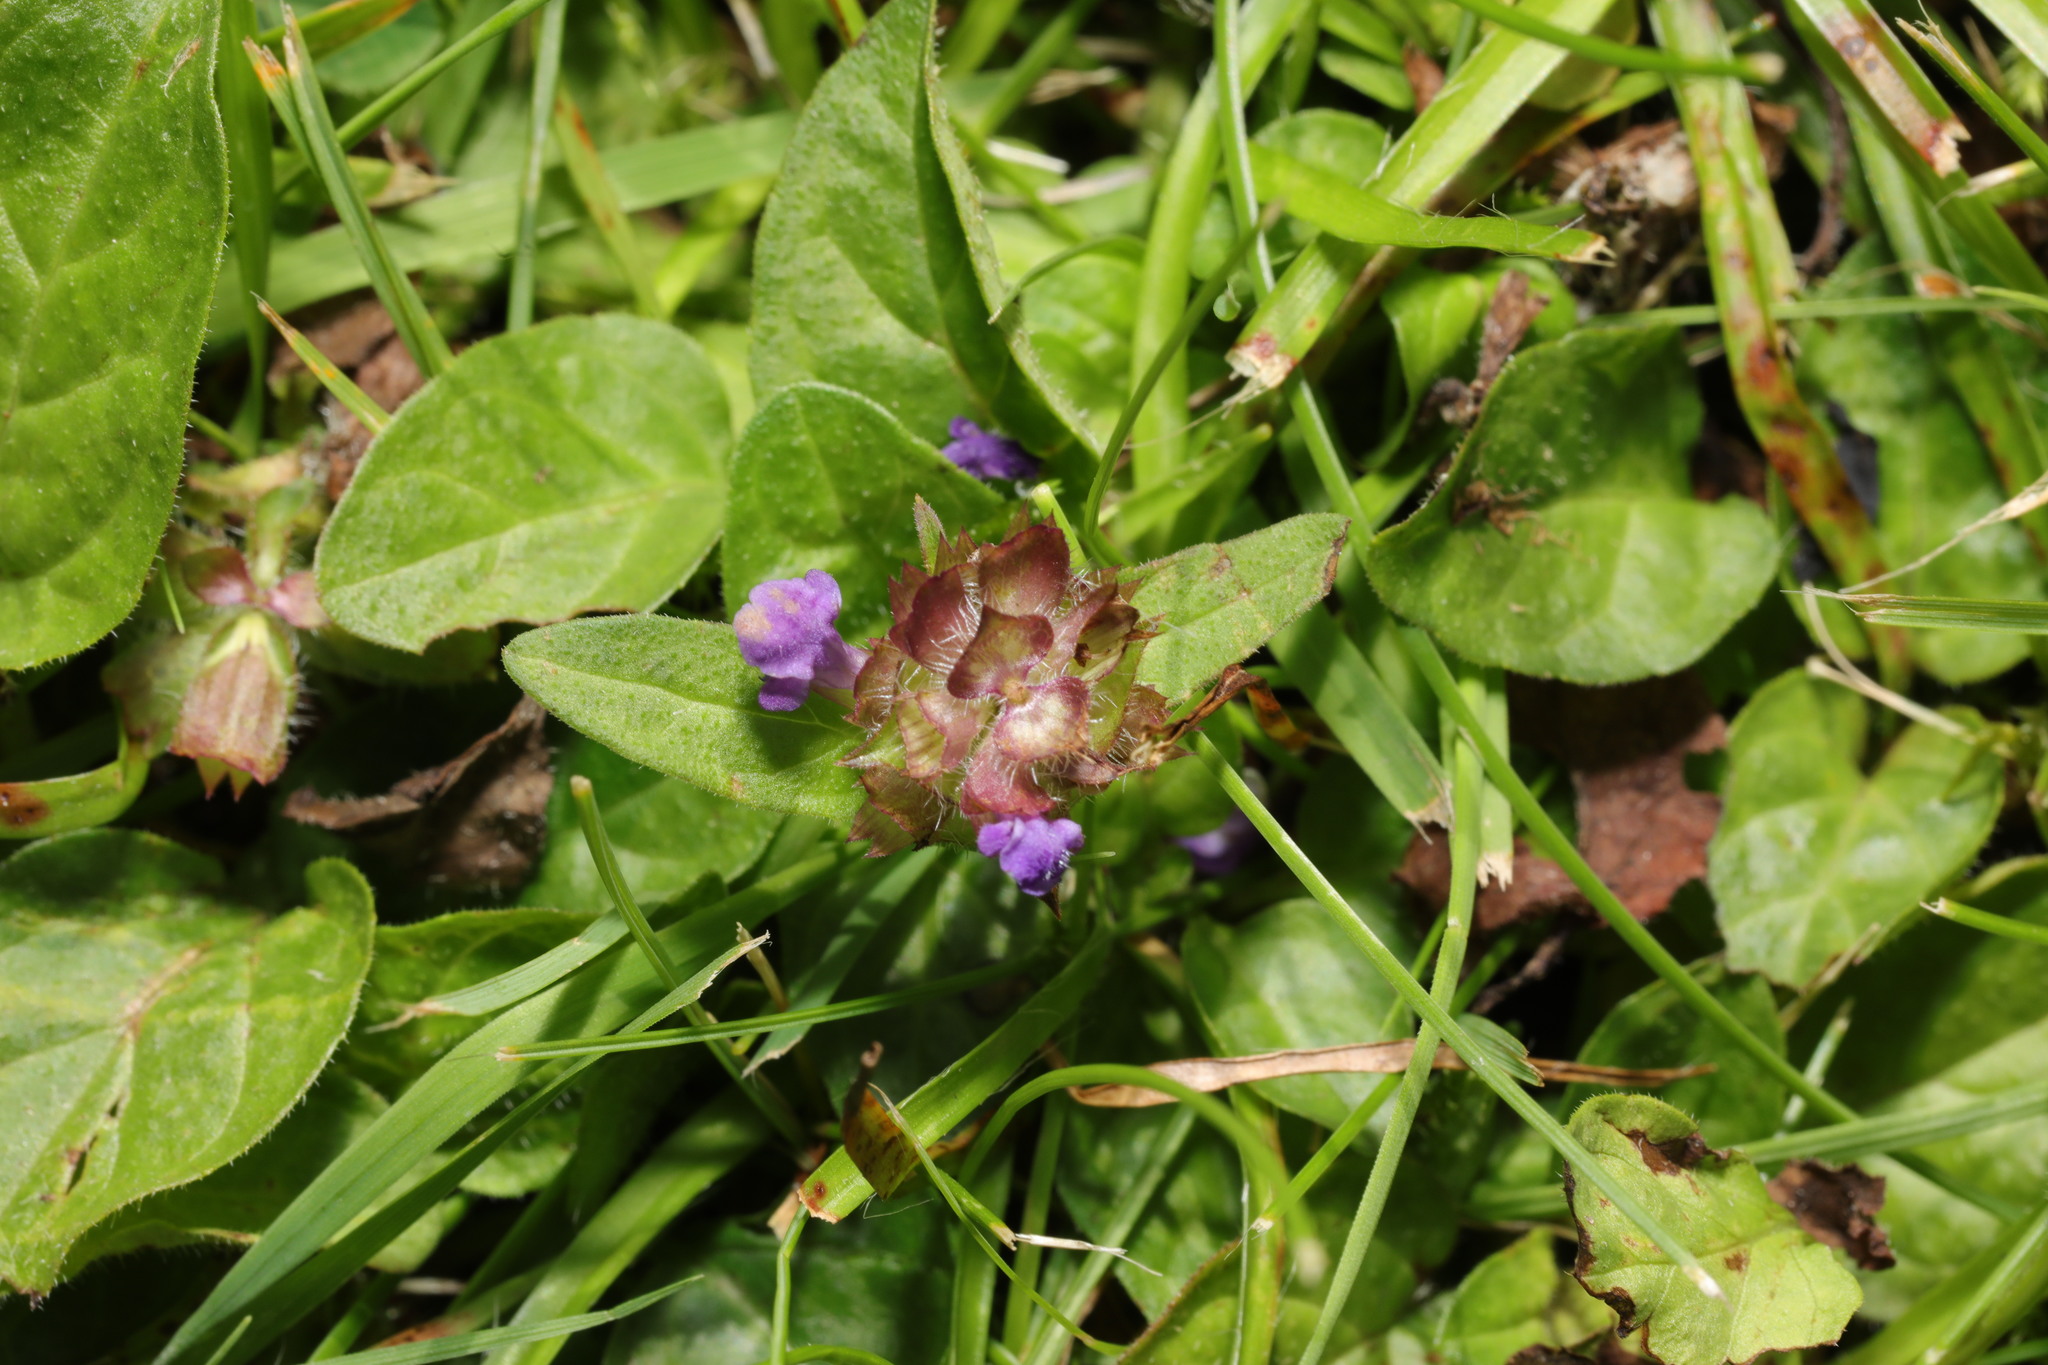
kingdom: Plantae
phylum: Tracheophyta
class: Magnoliopsida
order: Lamiales
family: Lamiaceae
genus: Prunella
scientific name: Prunella vulgaris
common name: Heal-all
